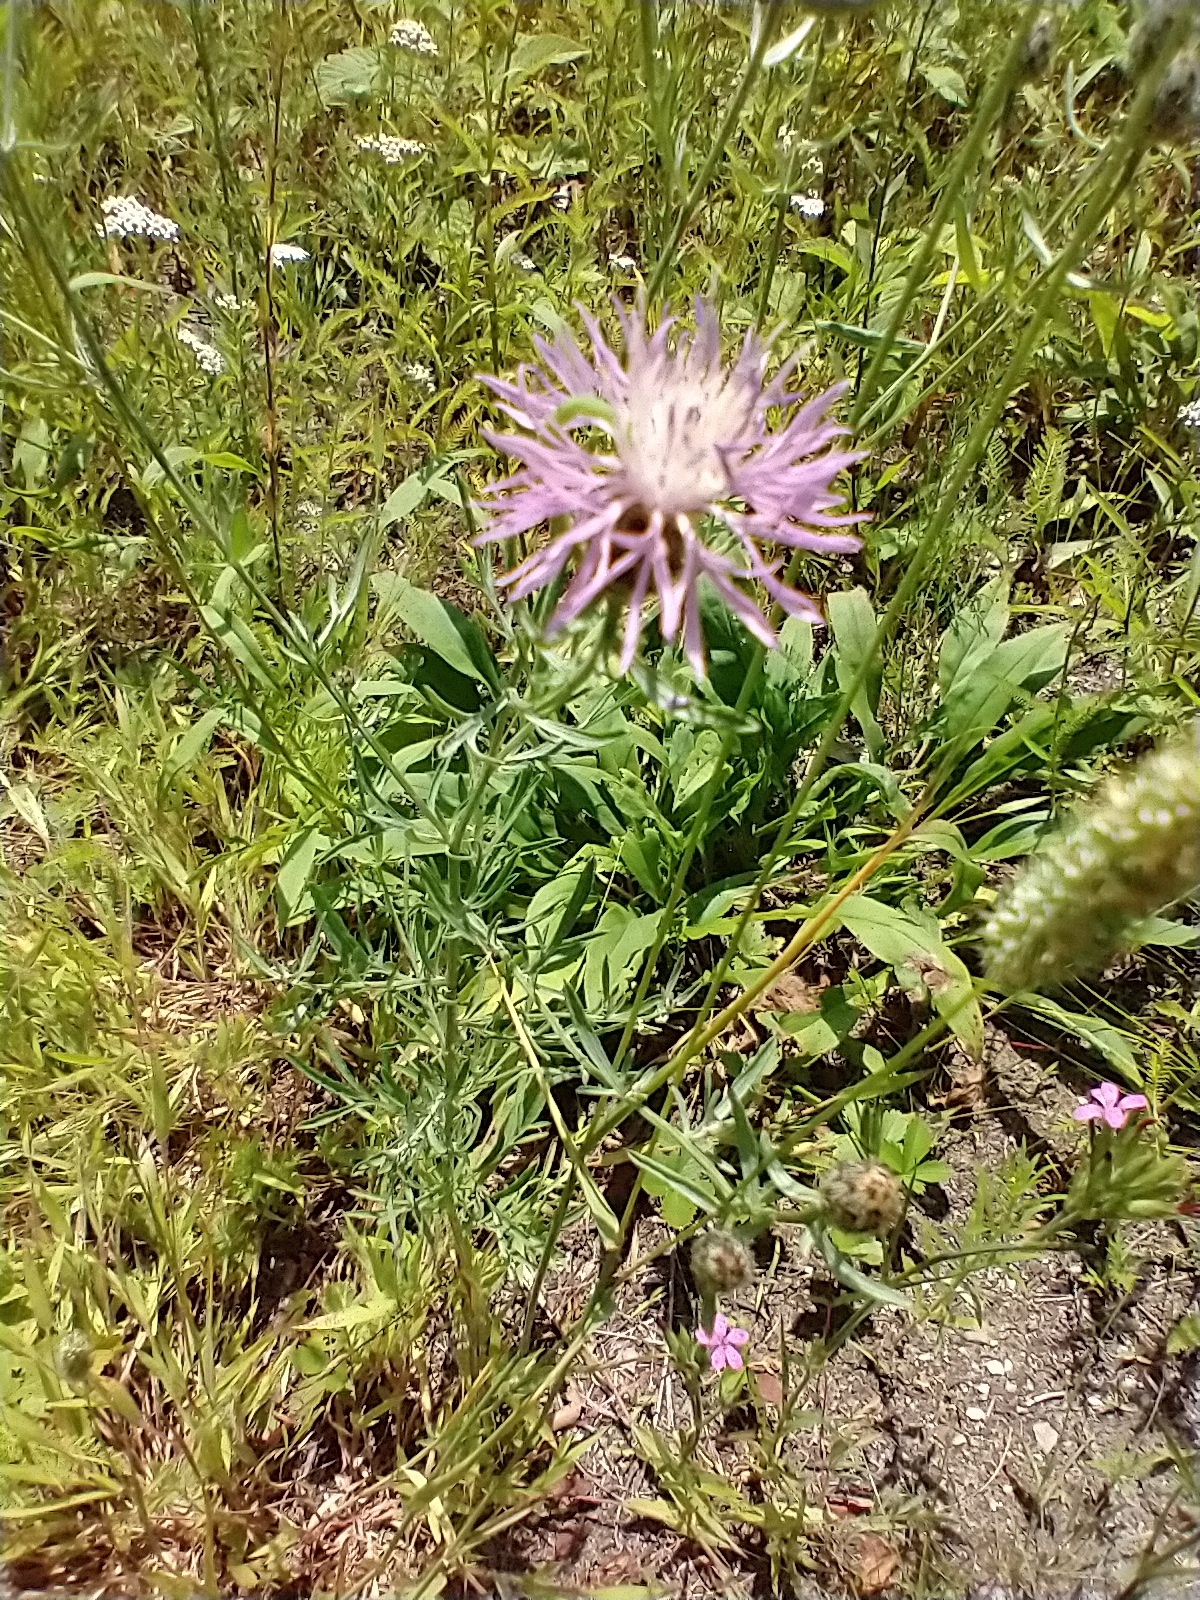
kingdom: Plantae
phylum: Tracheophyta
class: Magnoliopsida
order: Asterales
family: Asteraceae
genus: Centaurea
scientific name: Centaurea stoebe
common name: Spotted knapweed
